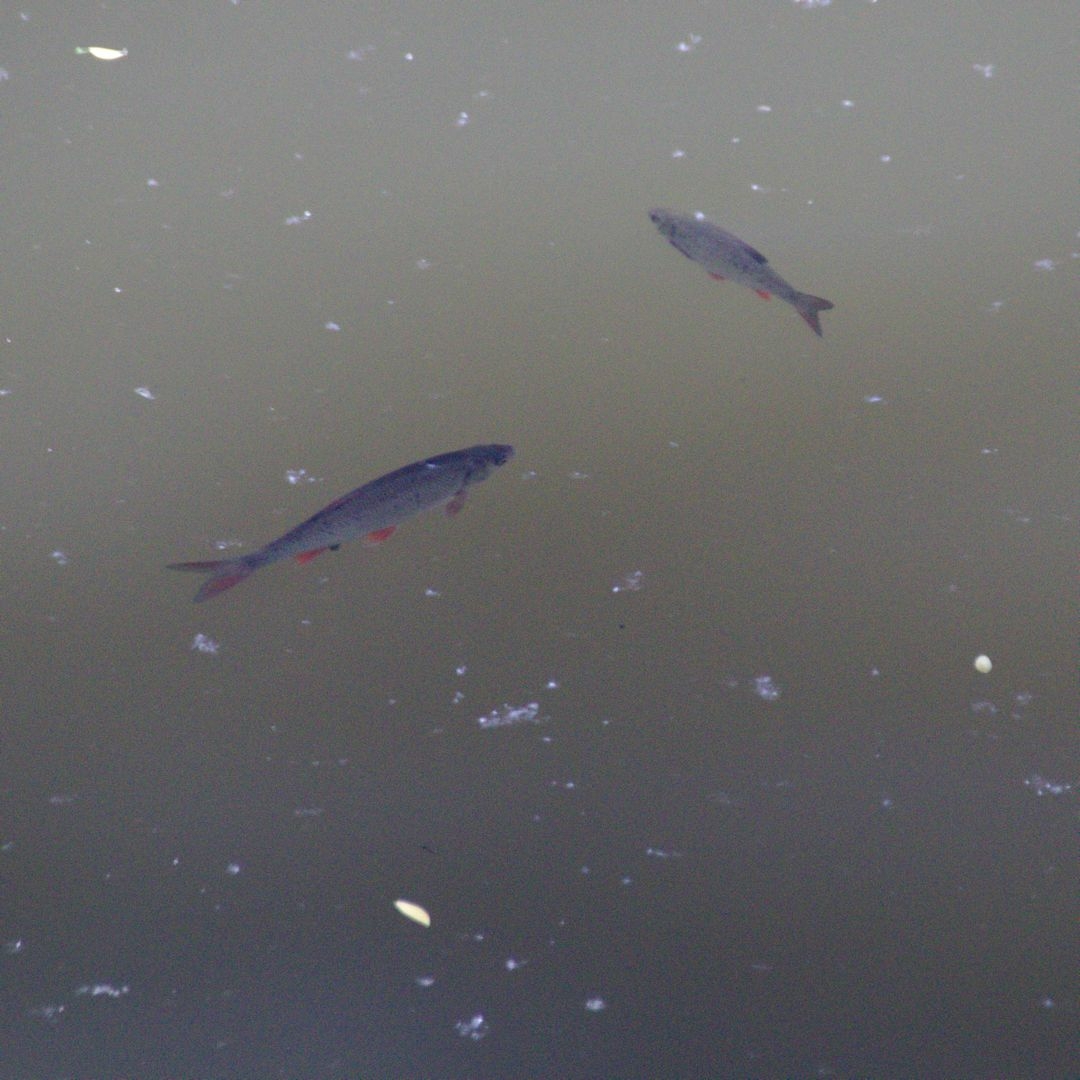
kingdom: Animalia
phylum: Chordata
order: Cypriniformes
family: Cyprinidae
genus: Scardinius
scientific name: Scardinius erythrophthalmus
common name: Rudd
